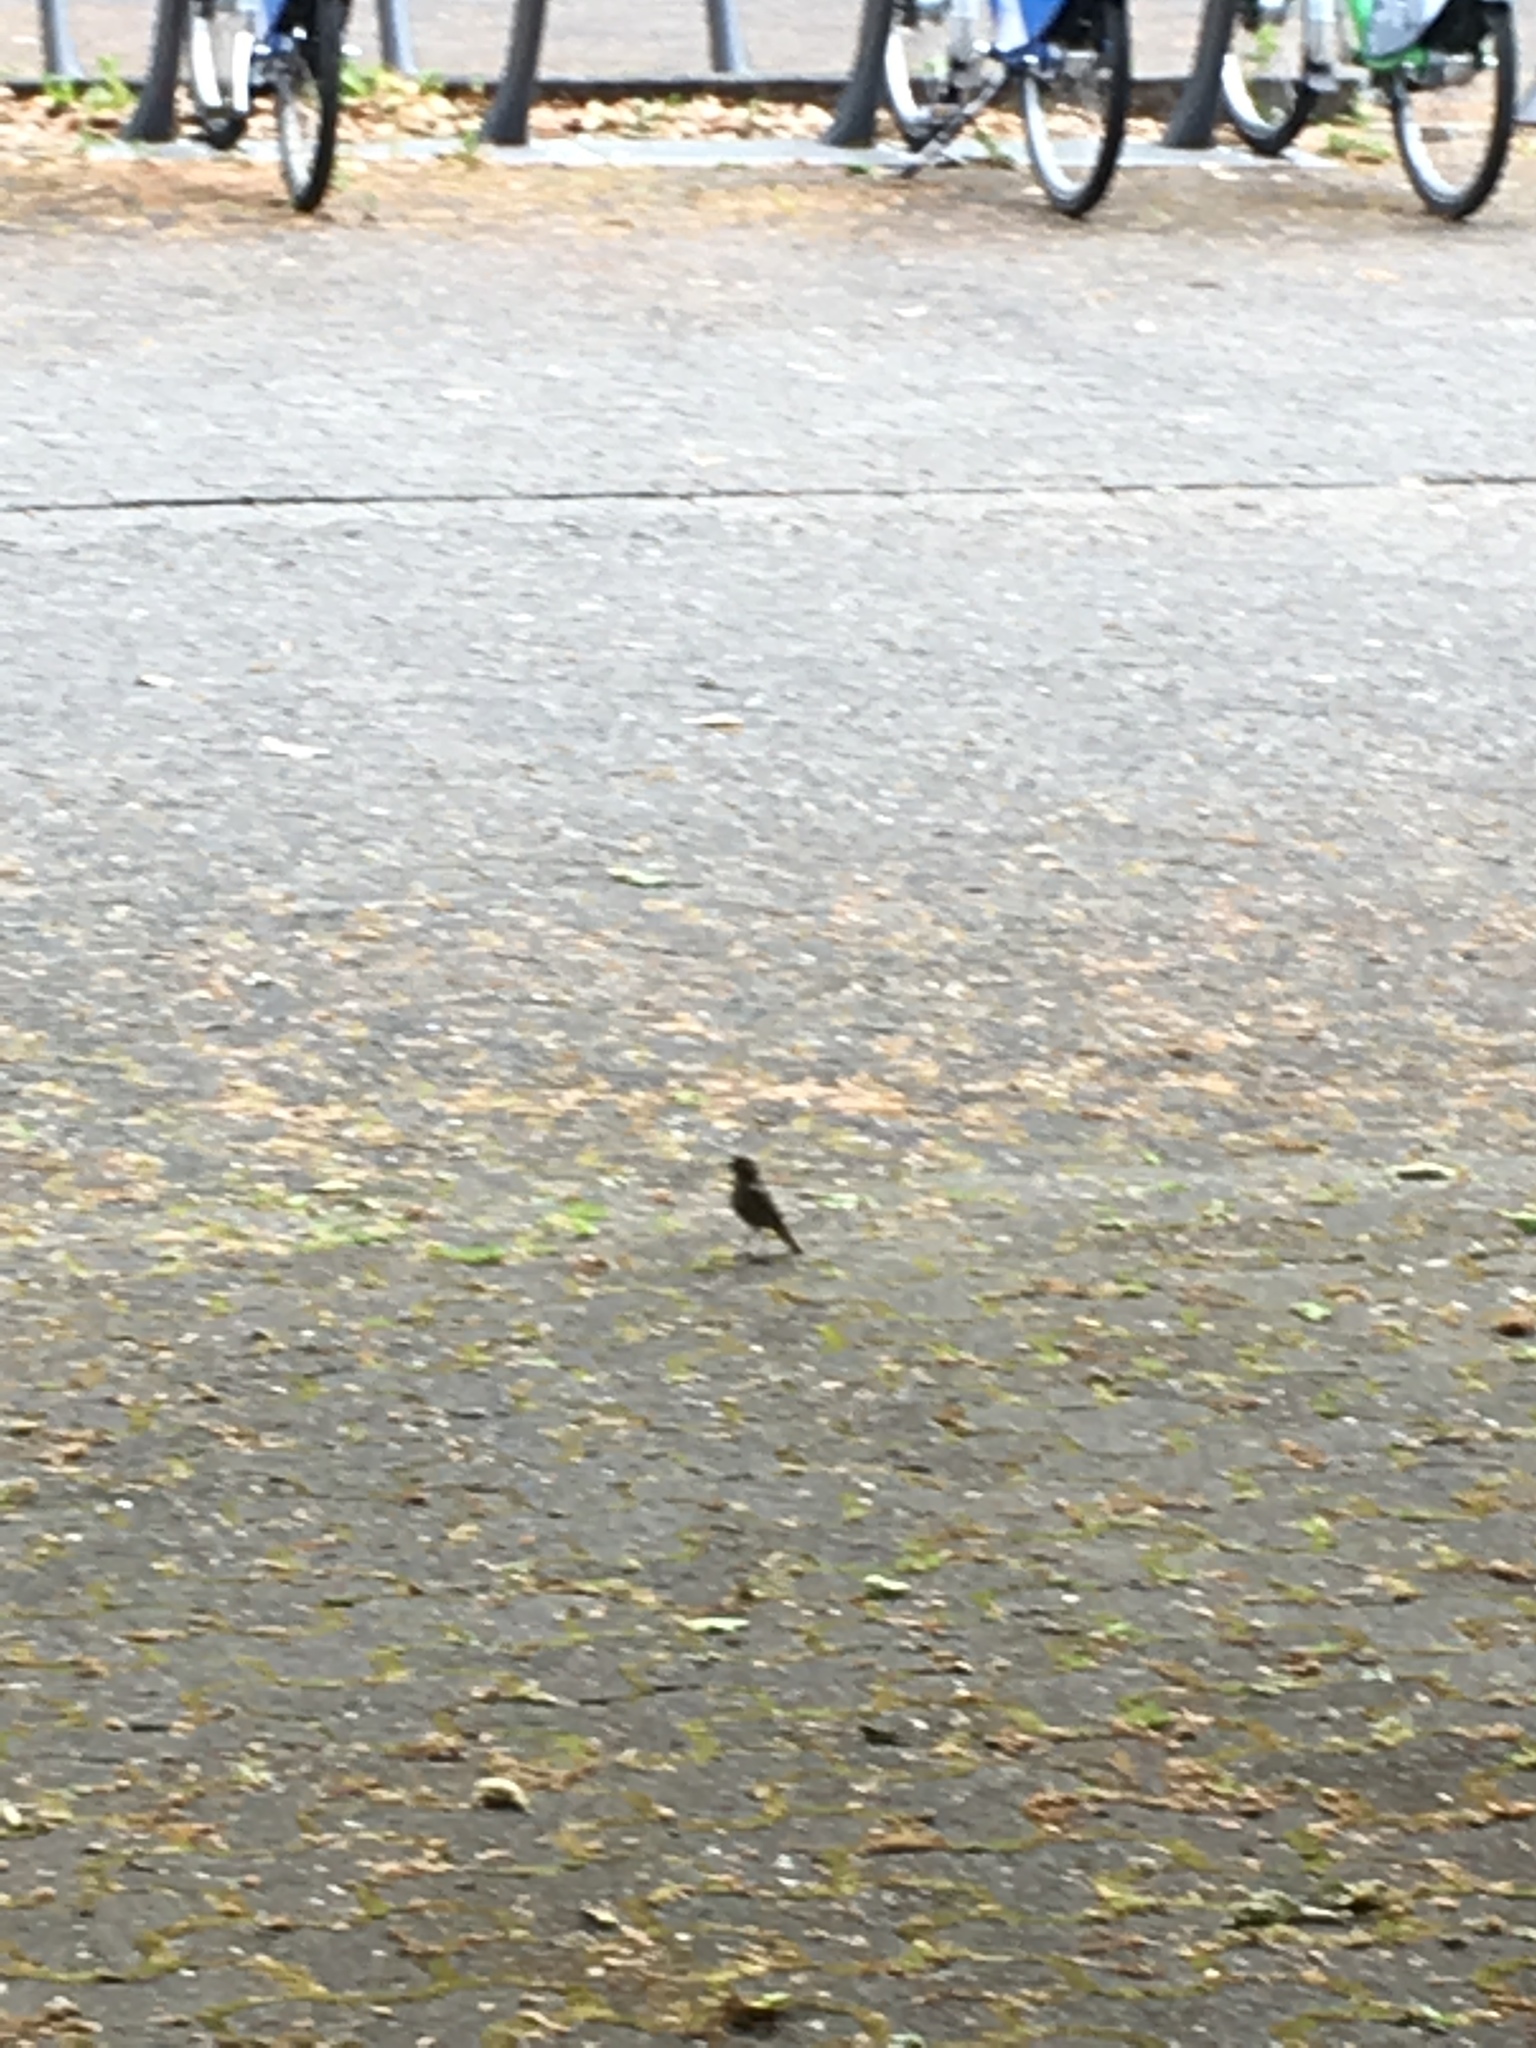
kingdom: Animalia
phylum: Chordata
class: Aves
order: Passeriformes
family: Muscicapidae
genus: Phoenicurus
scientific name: Phoenicurus ochruros
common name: Black redstart
